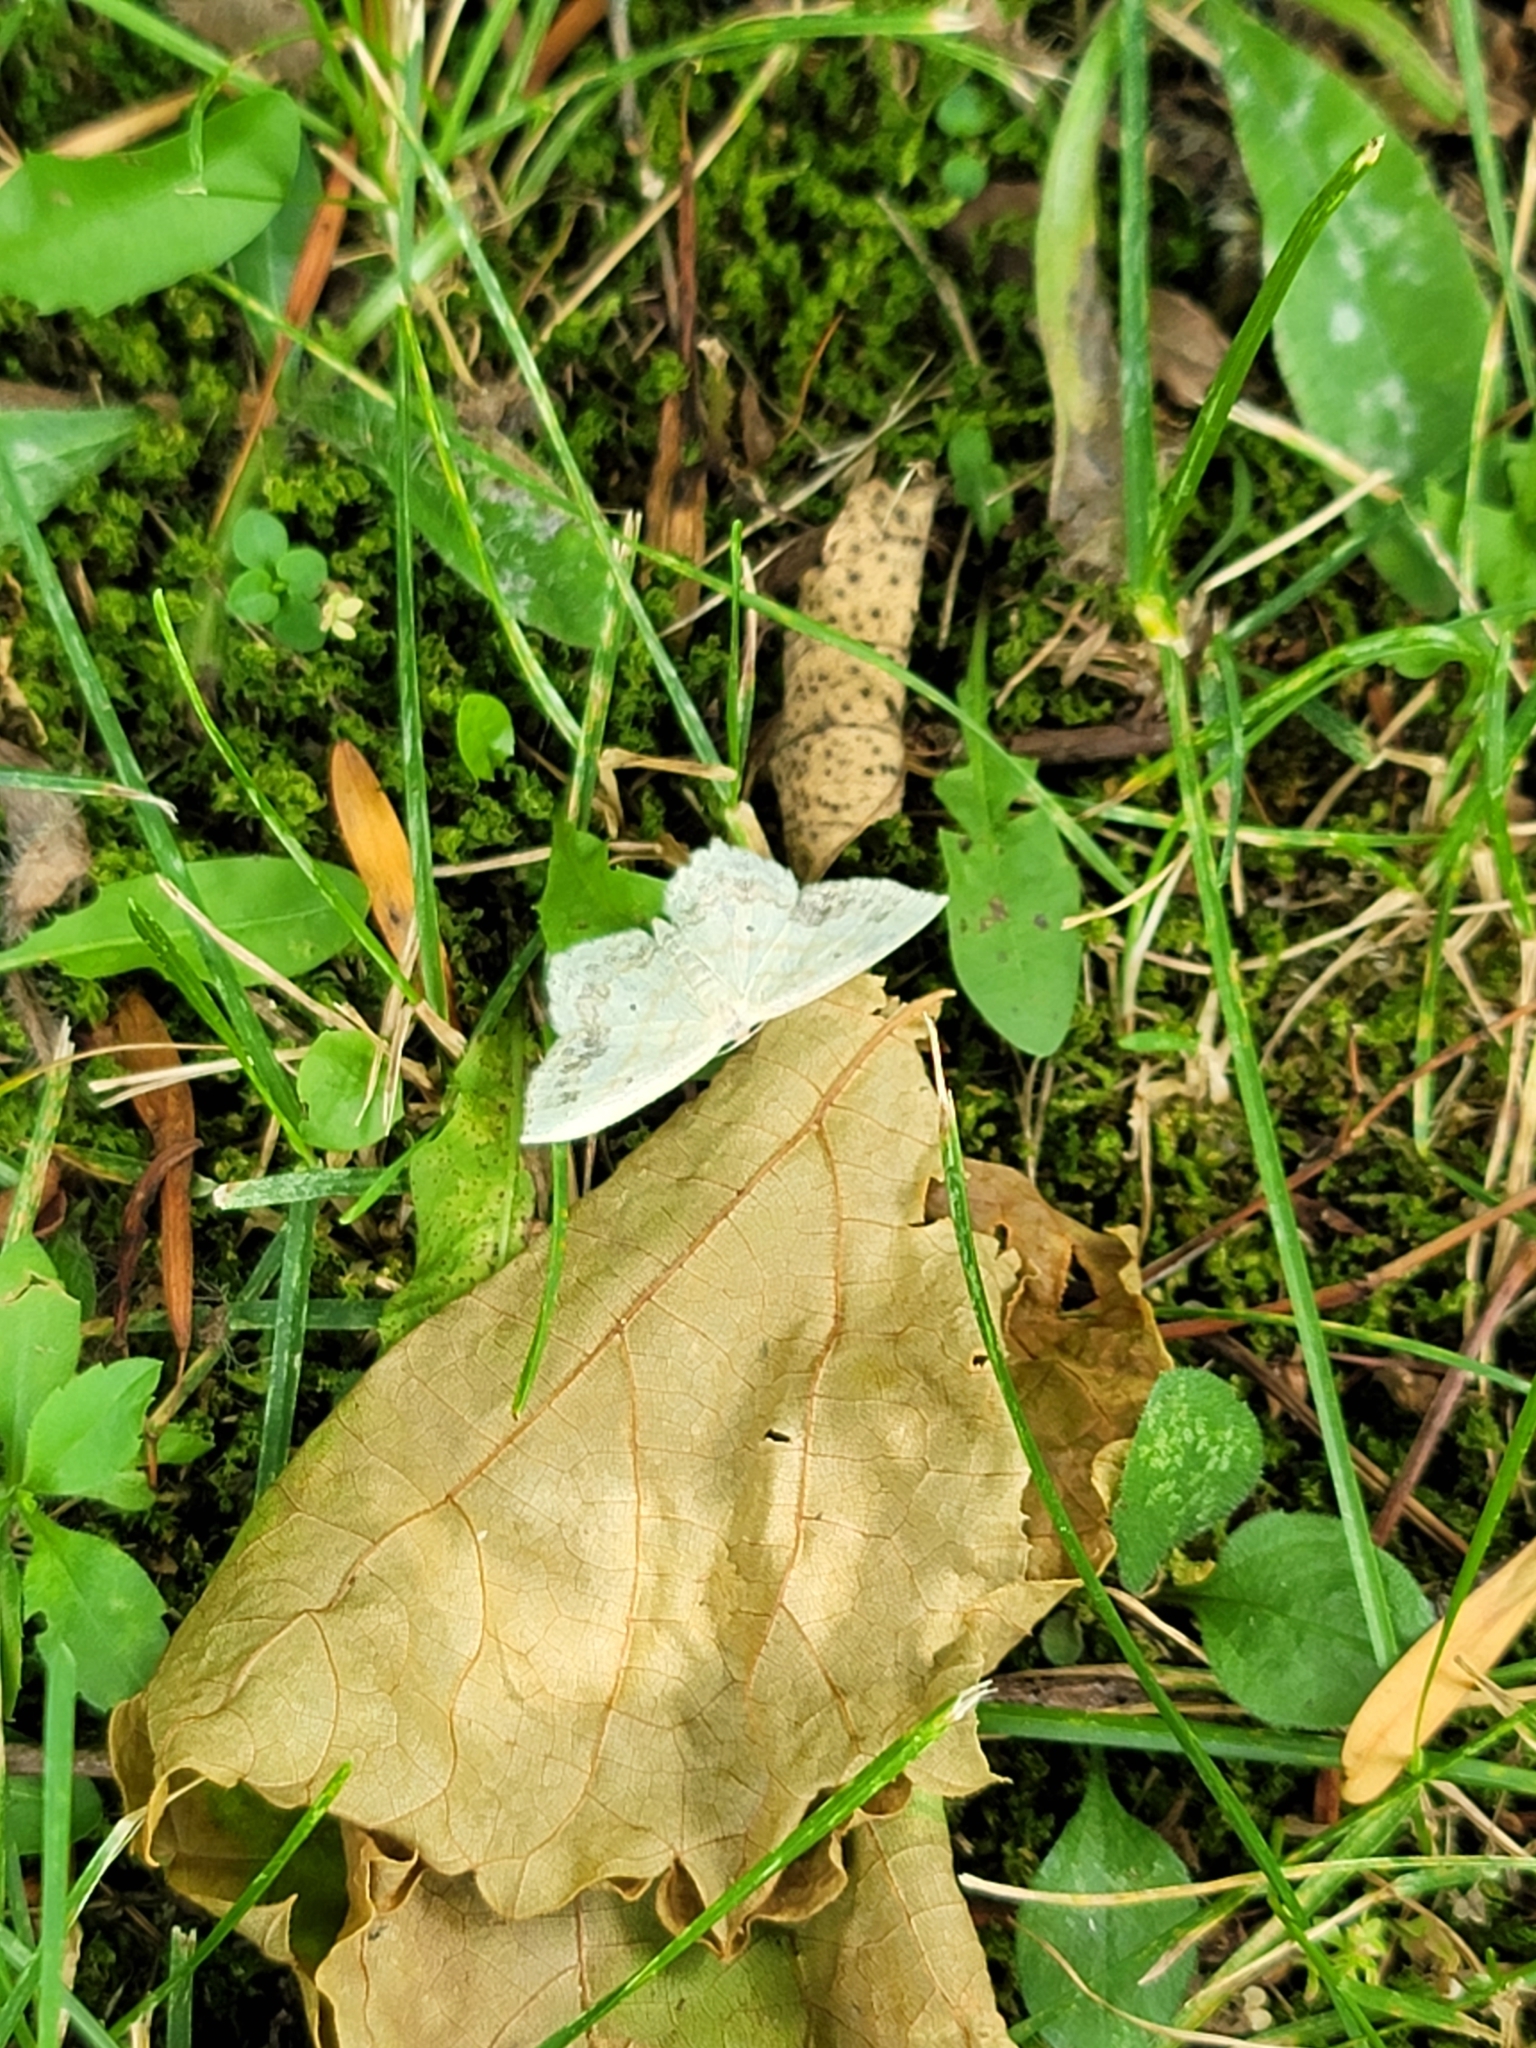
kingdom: Animalia
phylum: Arthropoda
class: Insecta
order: Lepidoptera
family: Geometridae
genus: Scopula
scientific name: Scopula limboundata
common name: Large lace border
